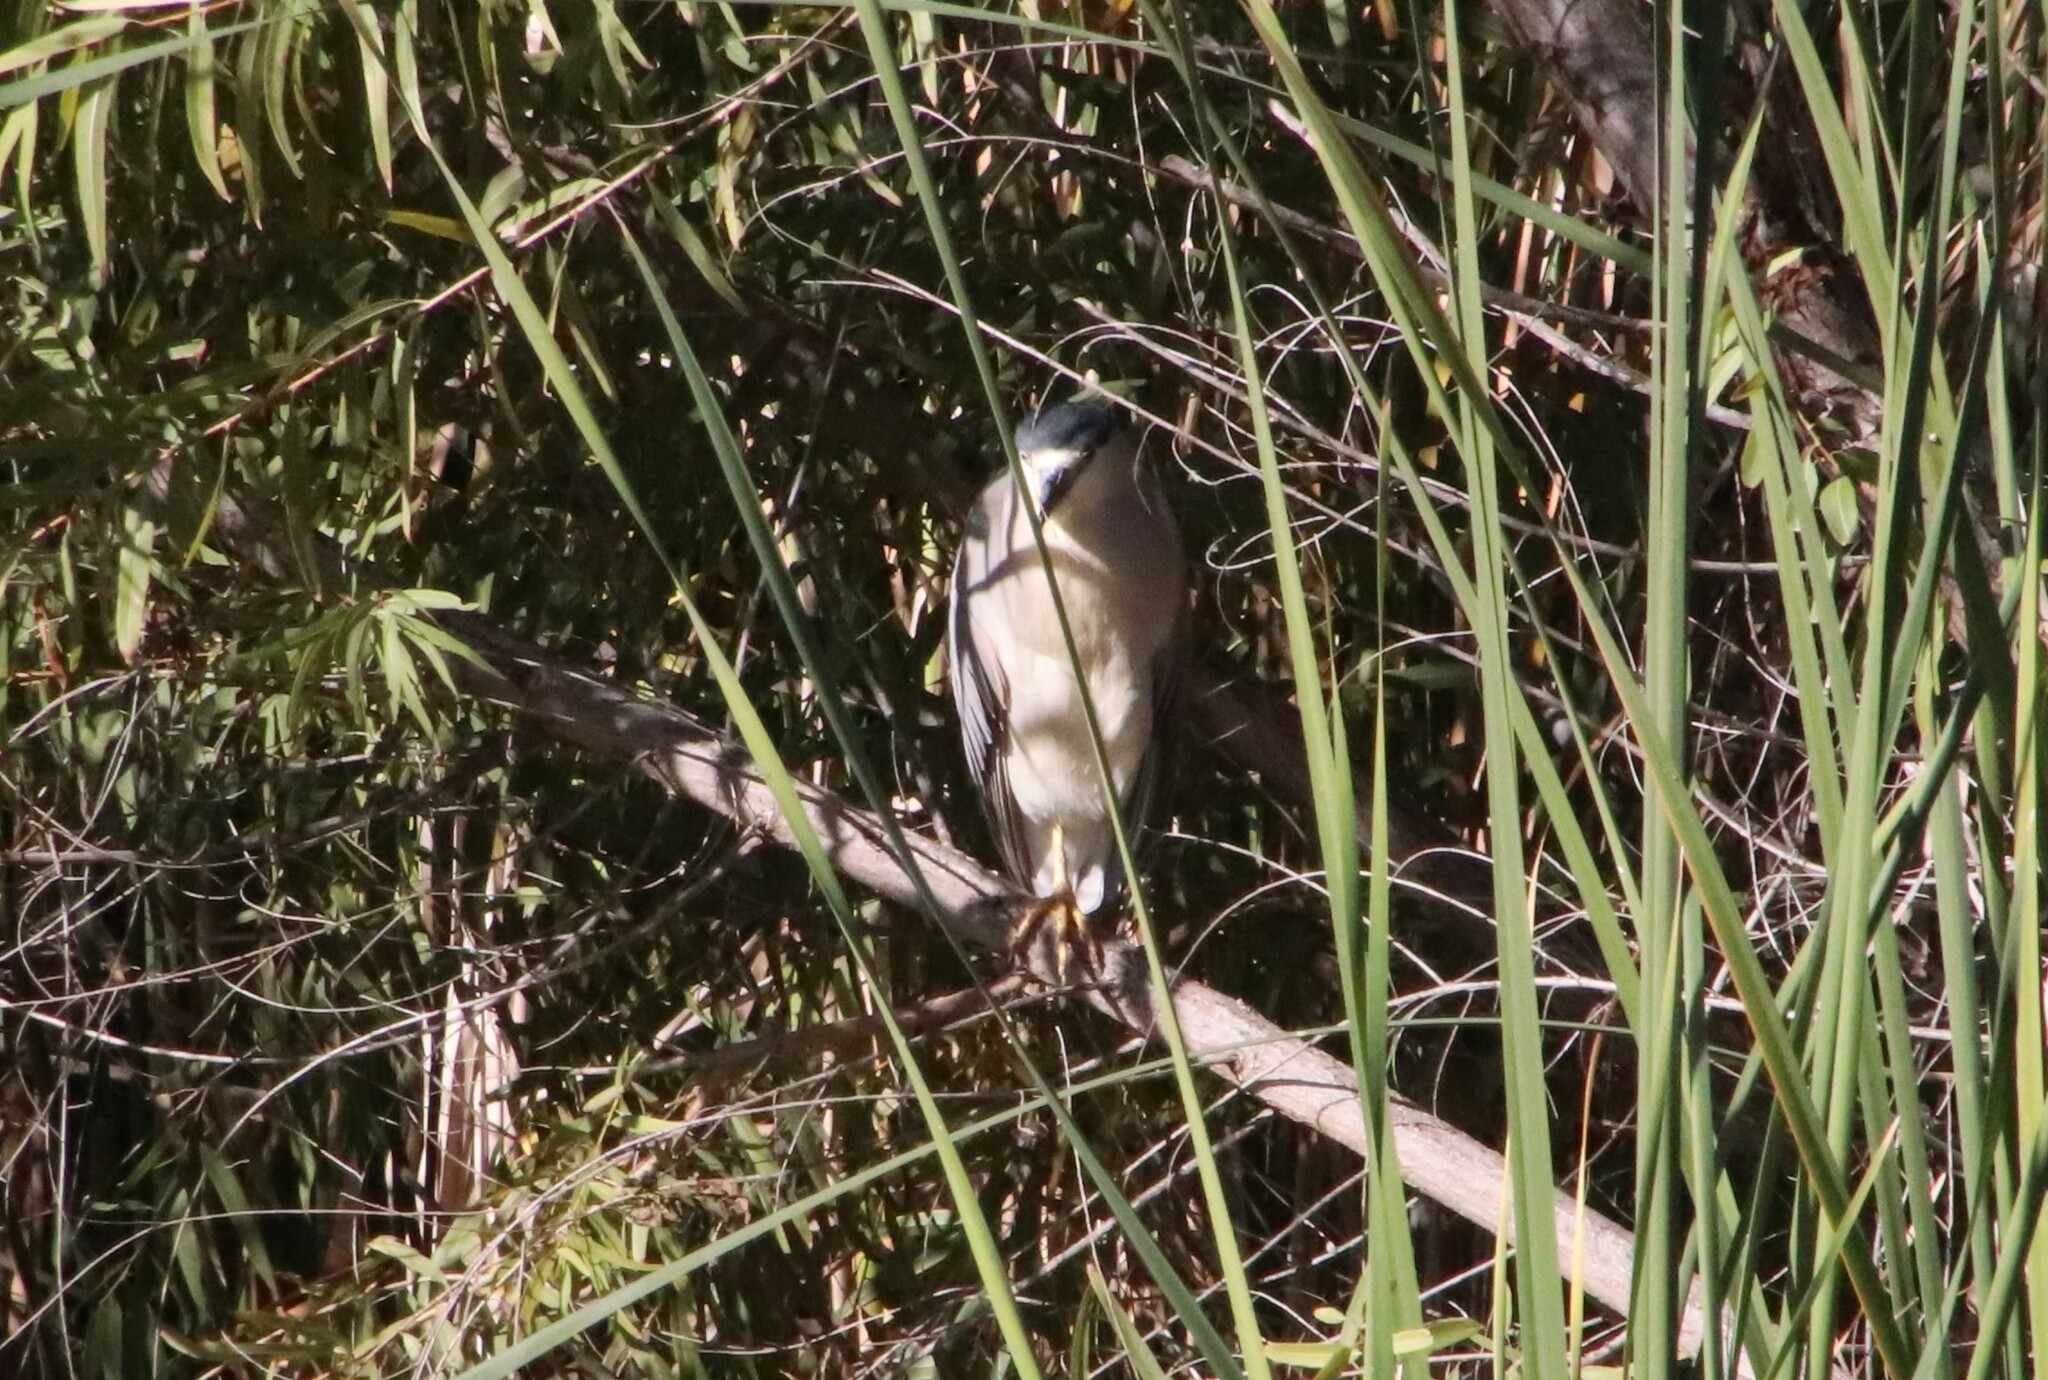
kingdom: Animalia
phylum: Chordata
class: Aves
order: Pelecaniformes
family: Ardeidae
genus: Nycticorax
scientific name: Nycticorax nycticorax
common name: Black-crowned night heron
